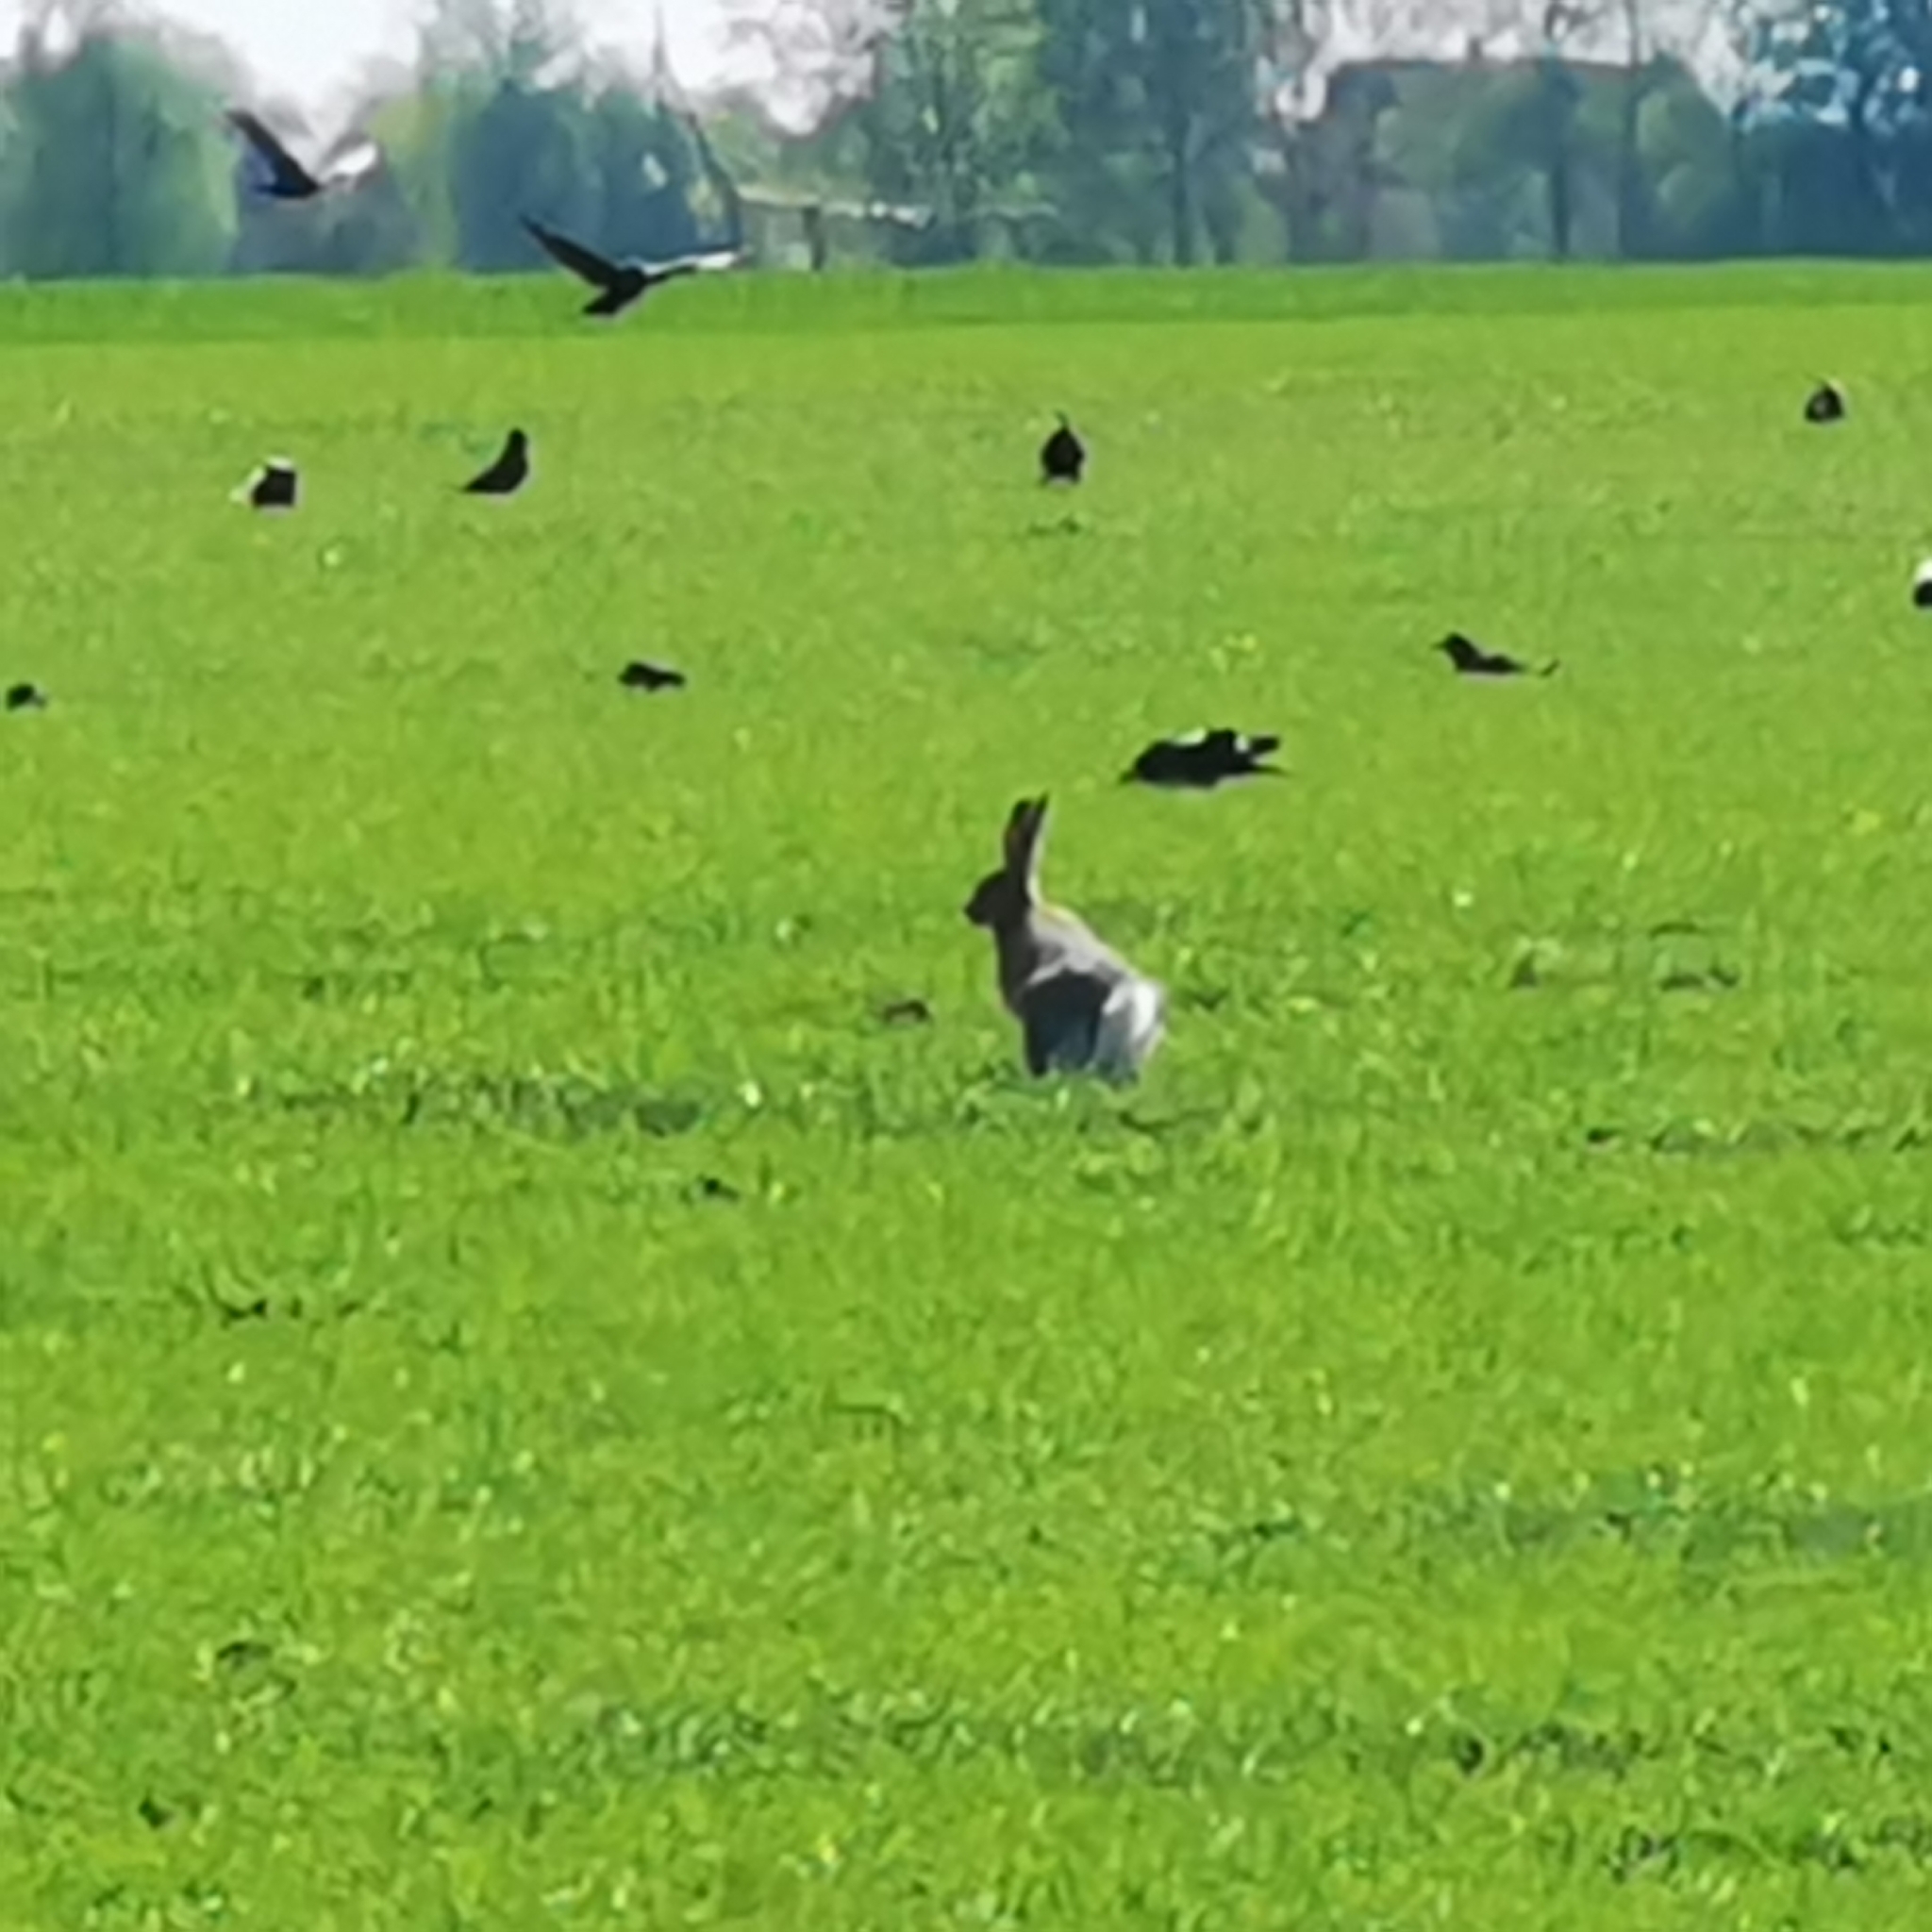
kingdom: Animalia
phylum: Chordata
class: Mammalia
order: Lagomorpha
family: Leporidae
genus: Lepus
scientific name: Lepus europaeus
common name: European hare
